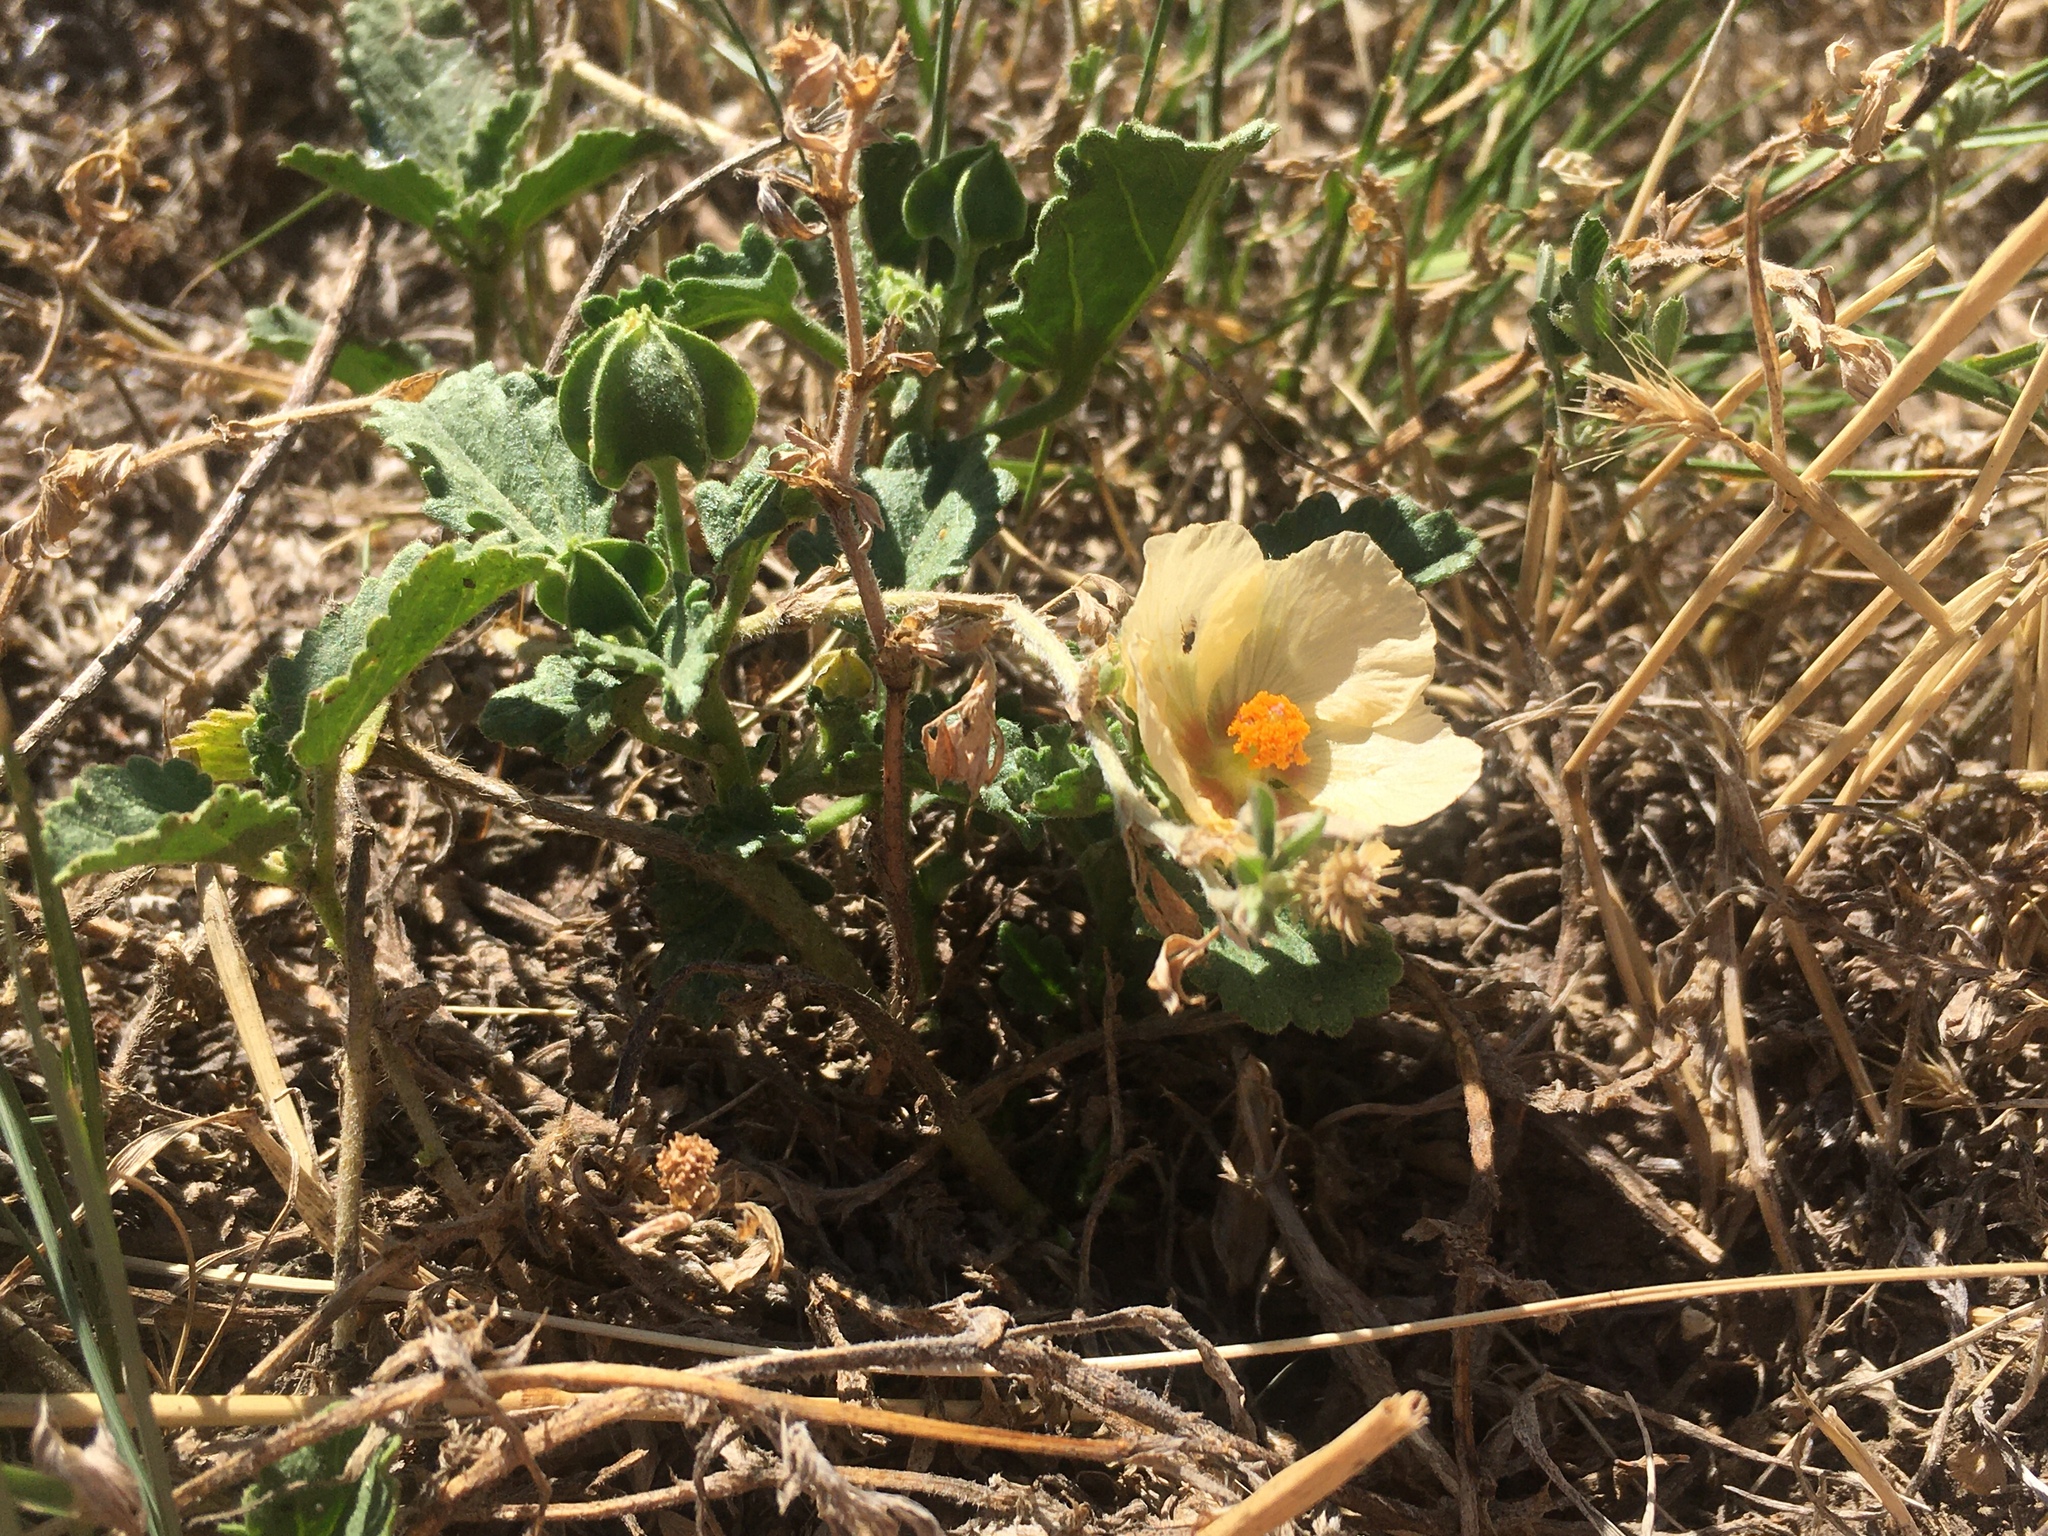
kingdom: Plantae
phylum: Tracheophyta
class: Magnoliopsida
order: Malvales
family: Malvaceae
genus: Rhynchosida
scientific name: Rhynchosida physocalyx
